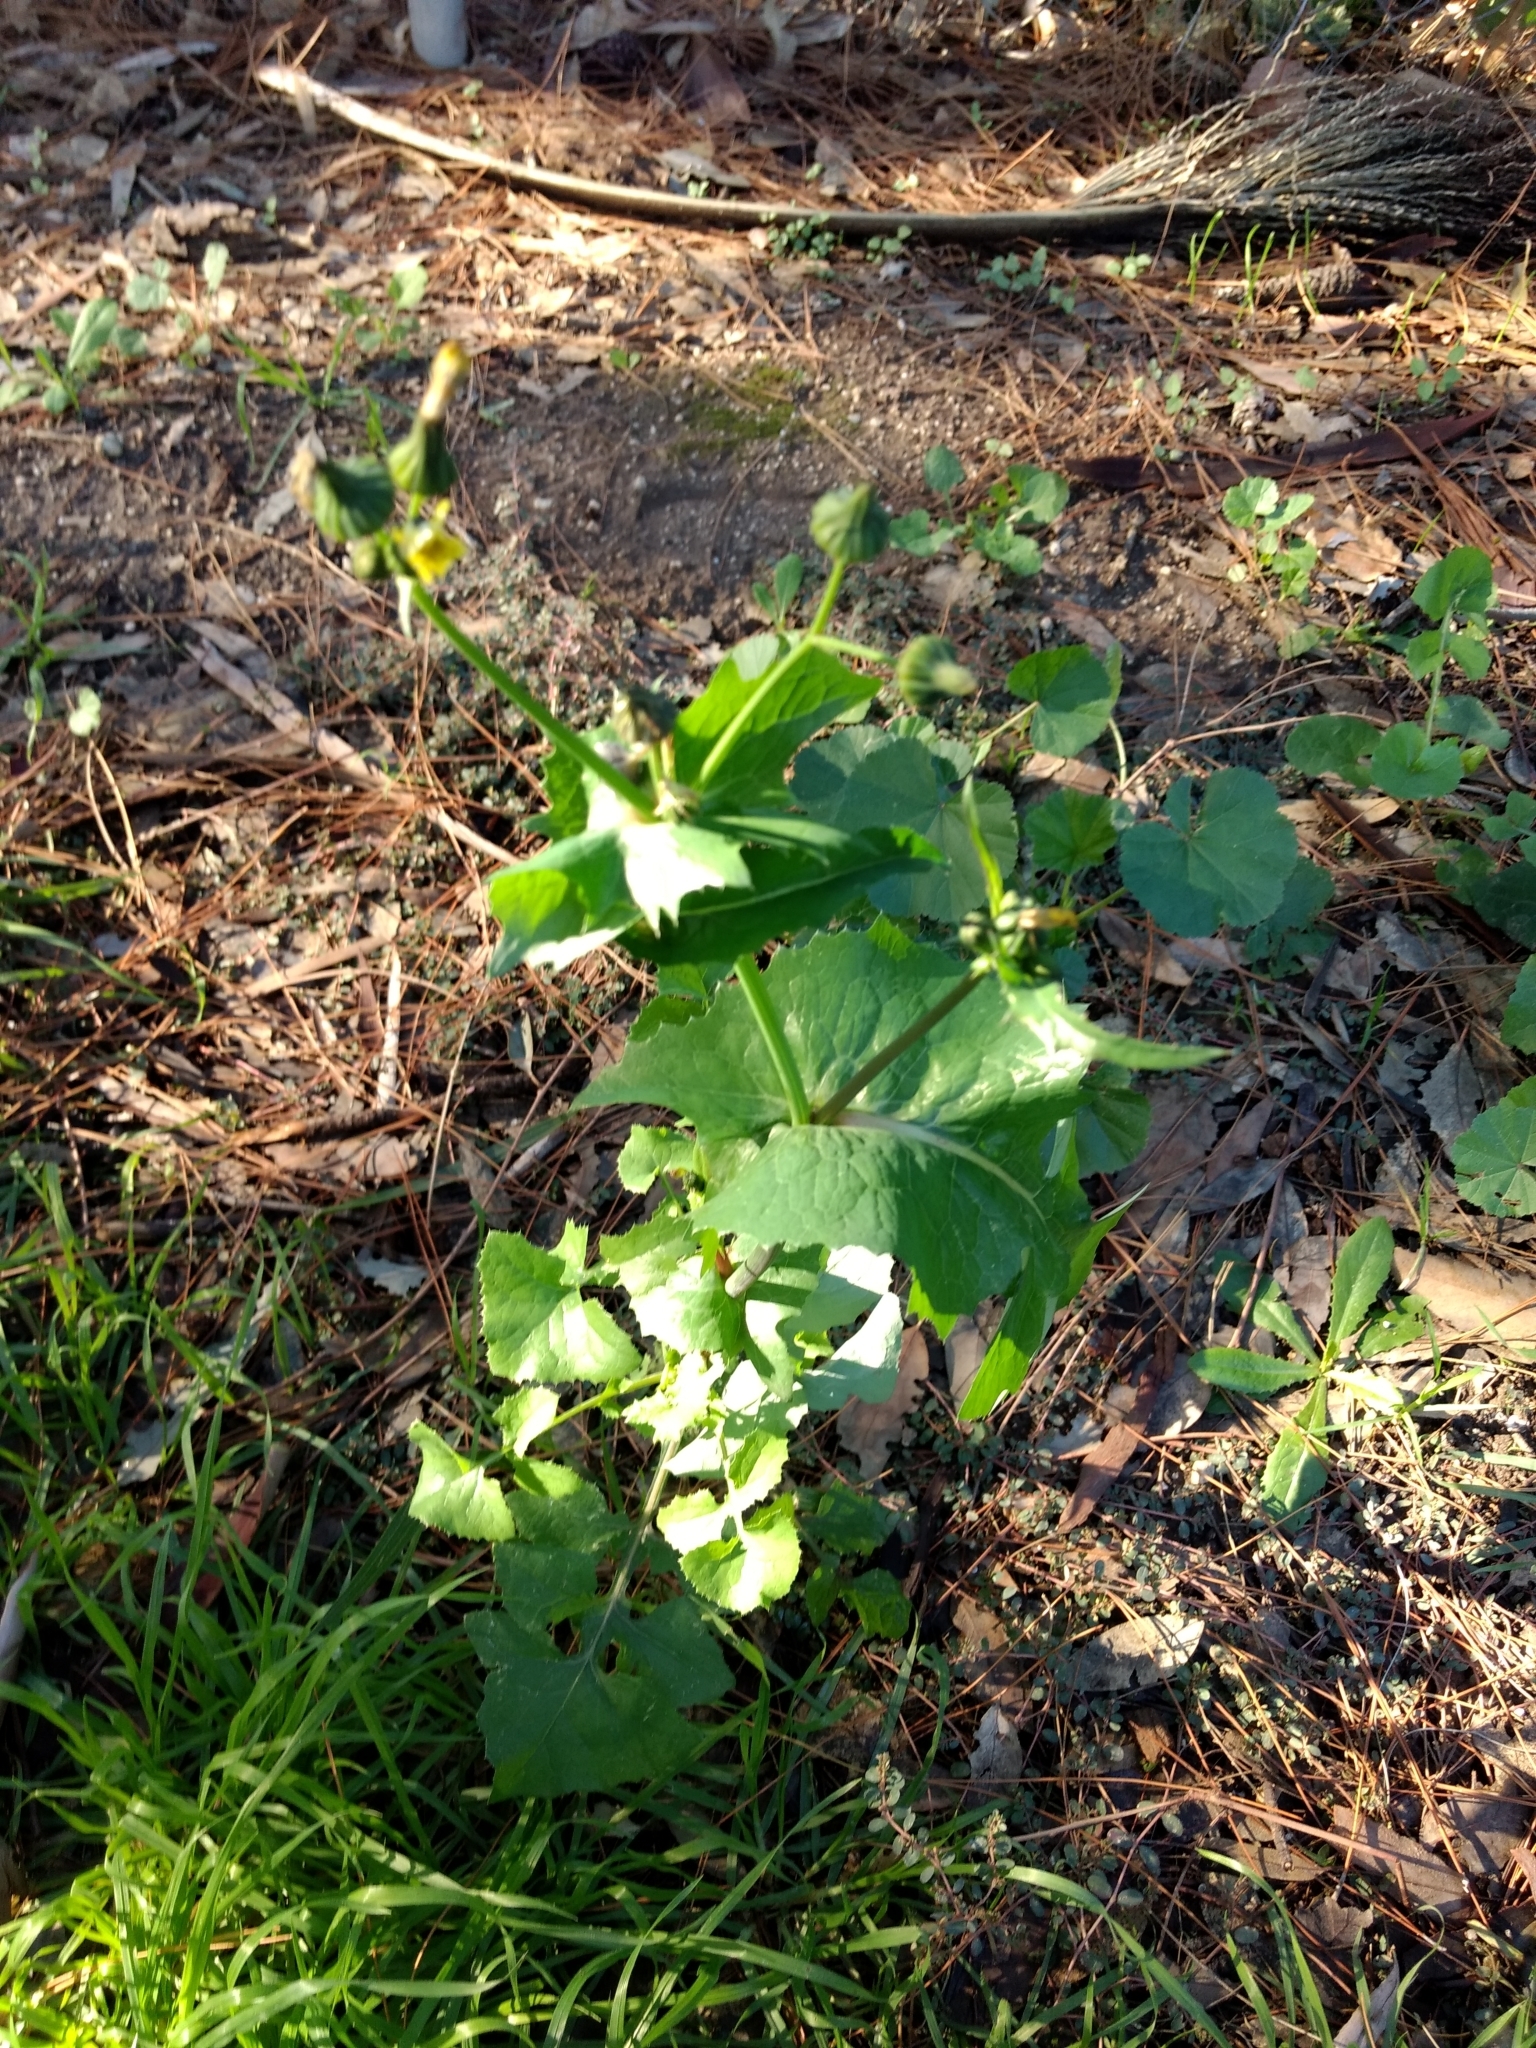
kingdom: Plantae
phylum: Tracheophyta
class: Magnoliopsida
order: Asterales
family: Asteraceae
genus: Sonchus
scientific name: Sonchus oleraceus
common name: Common sowthistle
